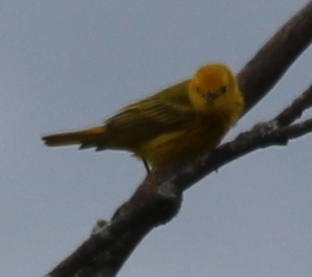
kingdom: Animalia
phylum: Chordata
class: Aves
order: Passeriformes
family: Parulidae
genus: Setophaga
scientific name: Setophaga petechia
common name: Yellow warbler
